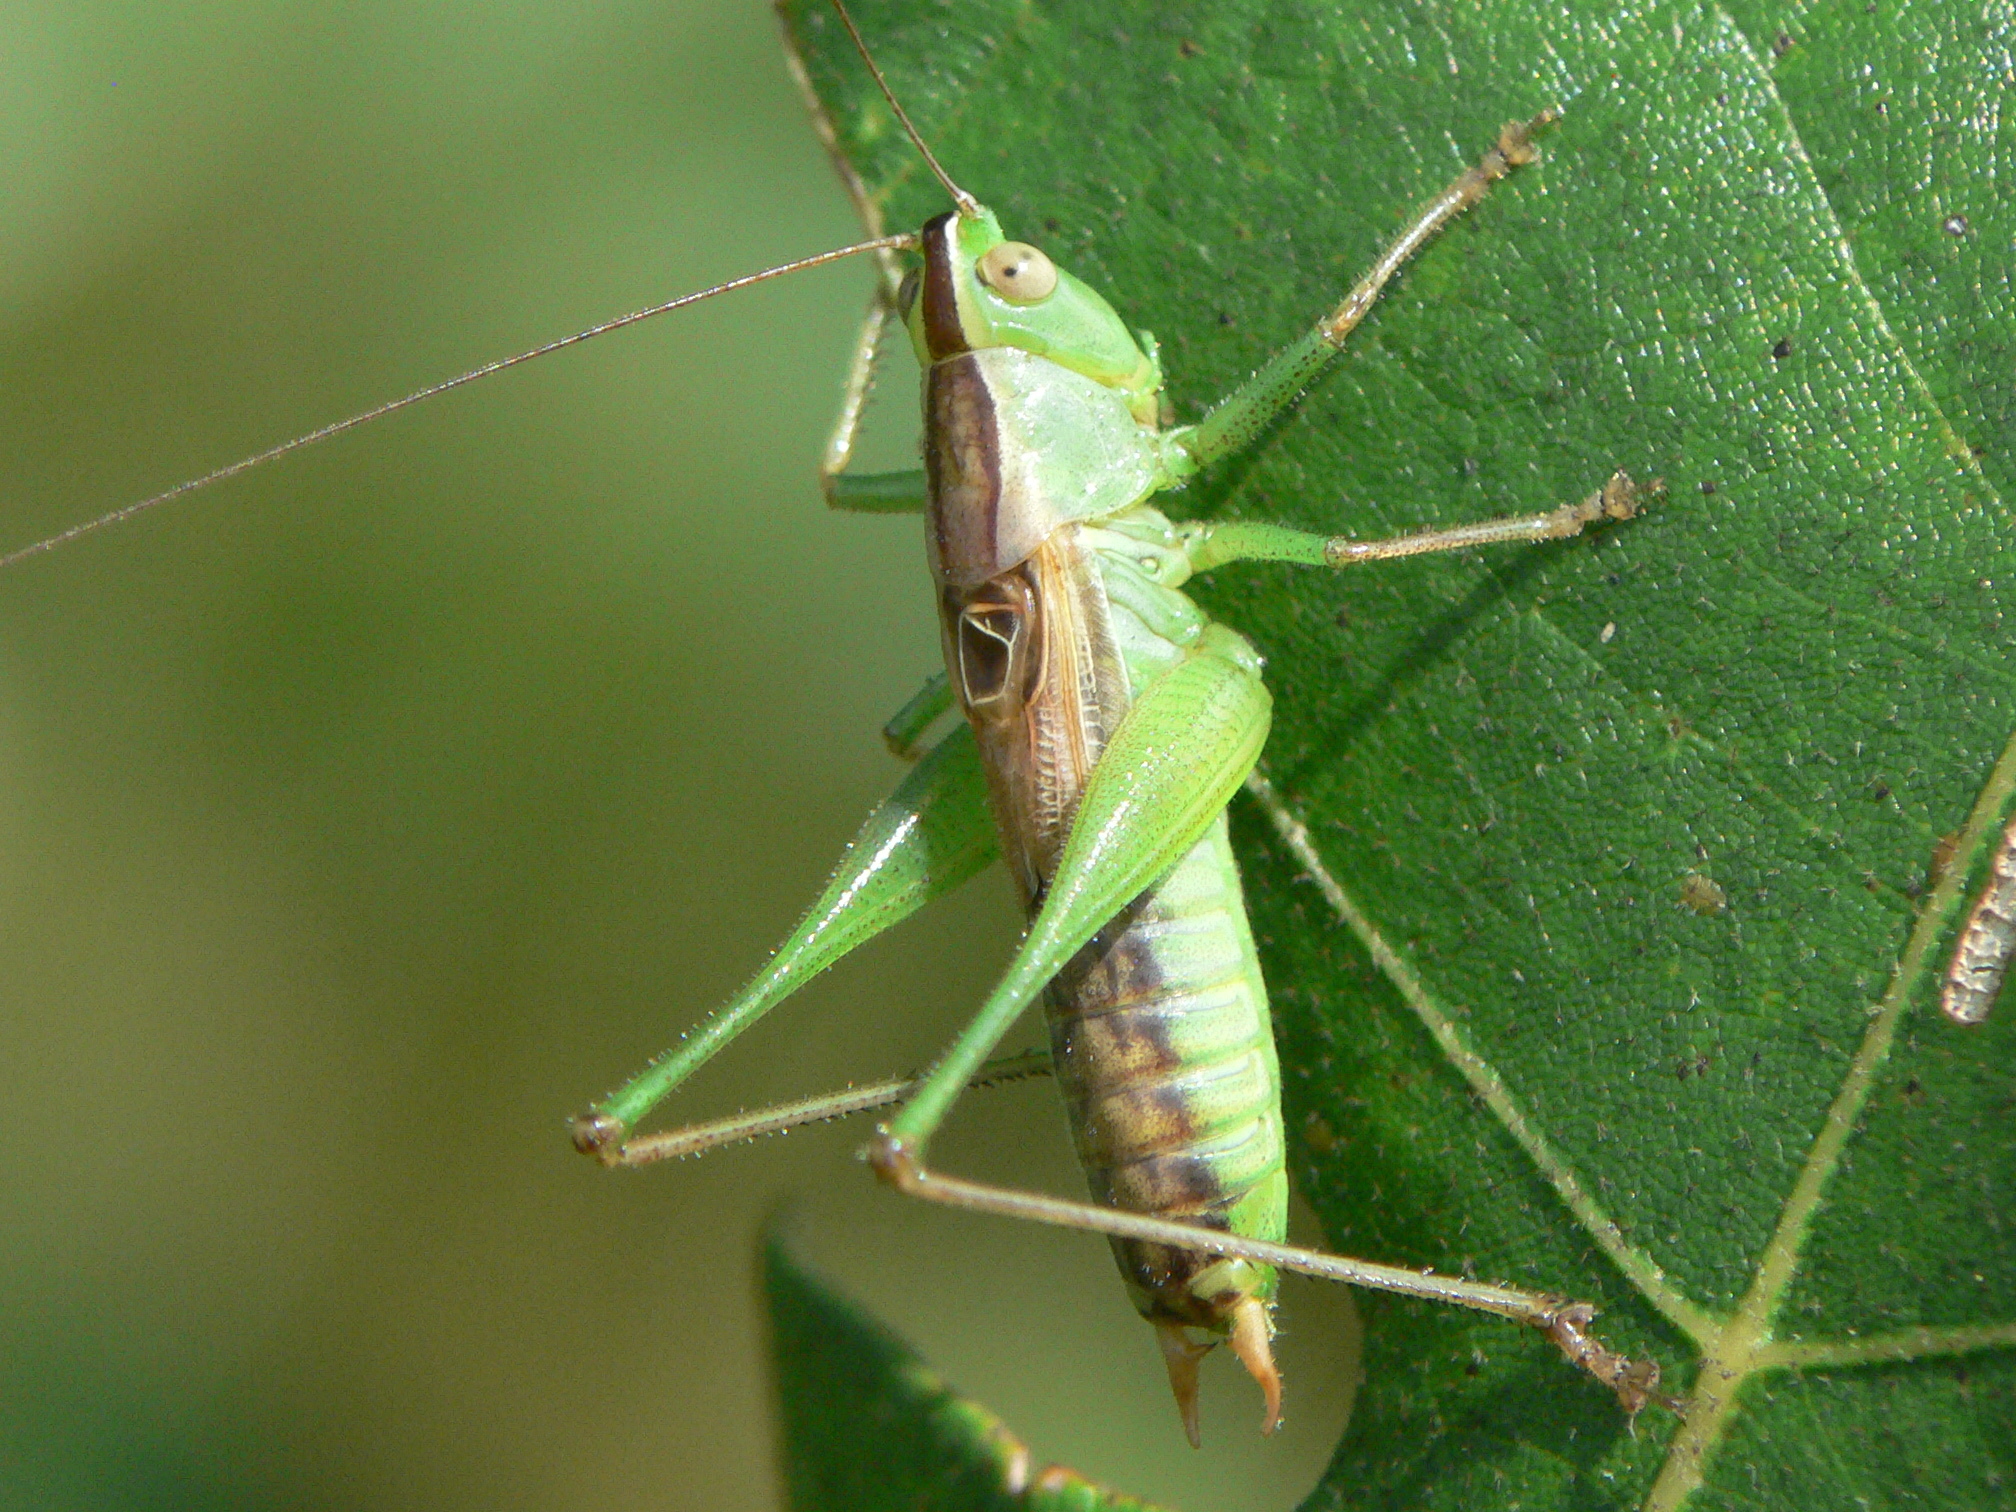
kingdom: Animalia
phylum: Arthropoda
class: Insecta
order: Orthoptera
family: Tettigoniidae
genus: Conocephalus
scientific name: Conocephalus strictus
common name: Straight-lanced katydid
